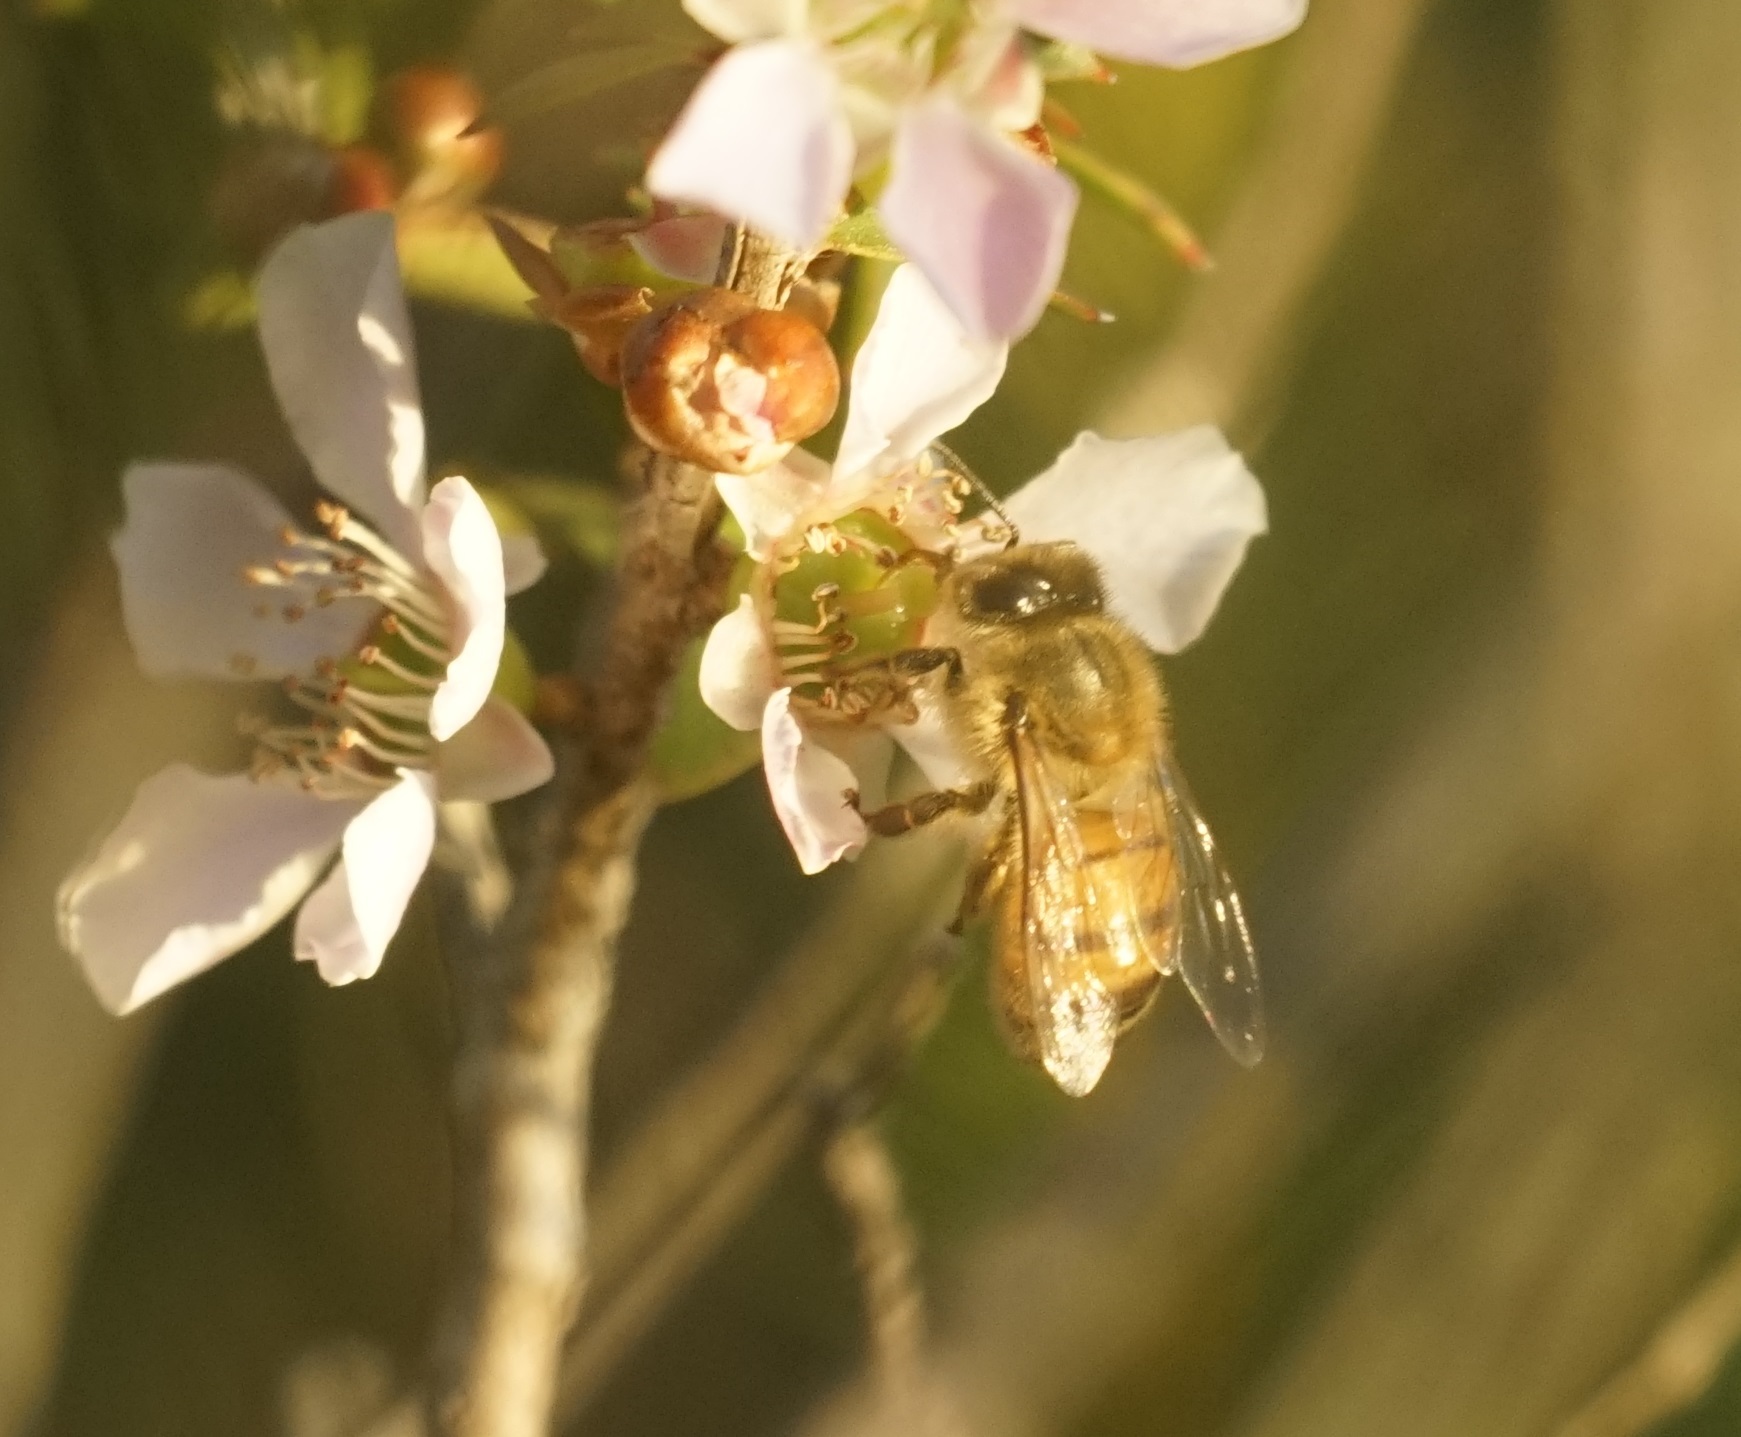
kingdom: Animalia
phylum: Arthropoda
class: Insecta
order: Hymenoptera
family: Apidae
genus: Apis
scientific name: Apis mellifera
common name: Honey bee
